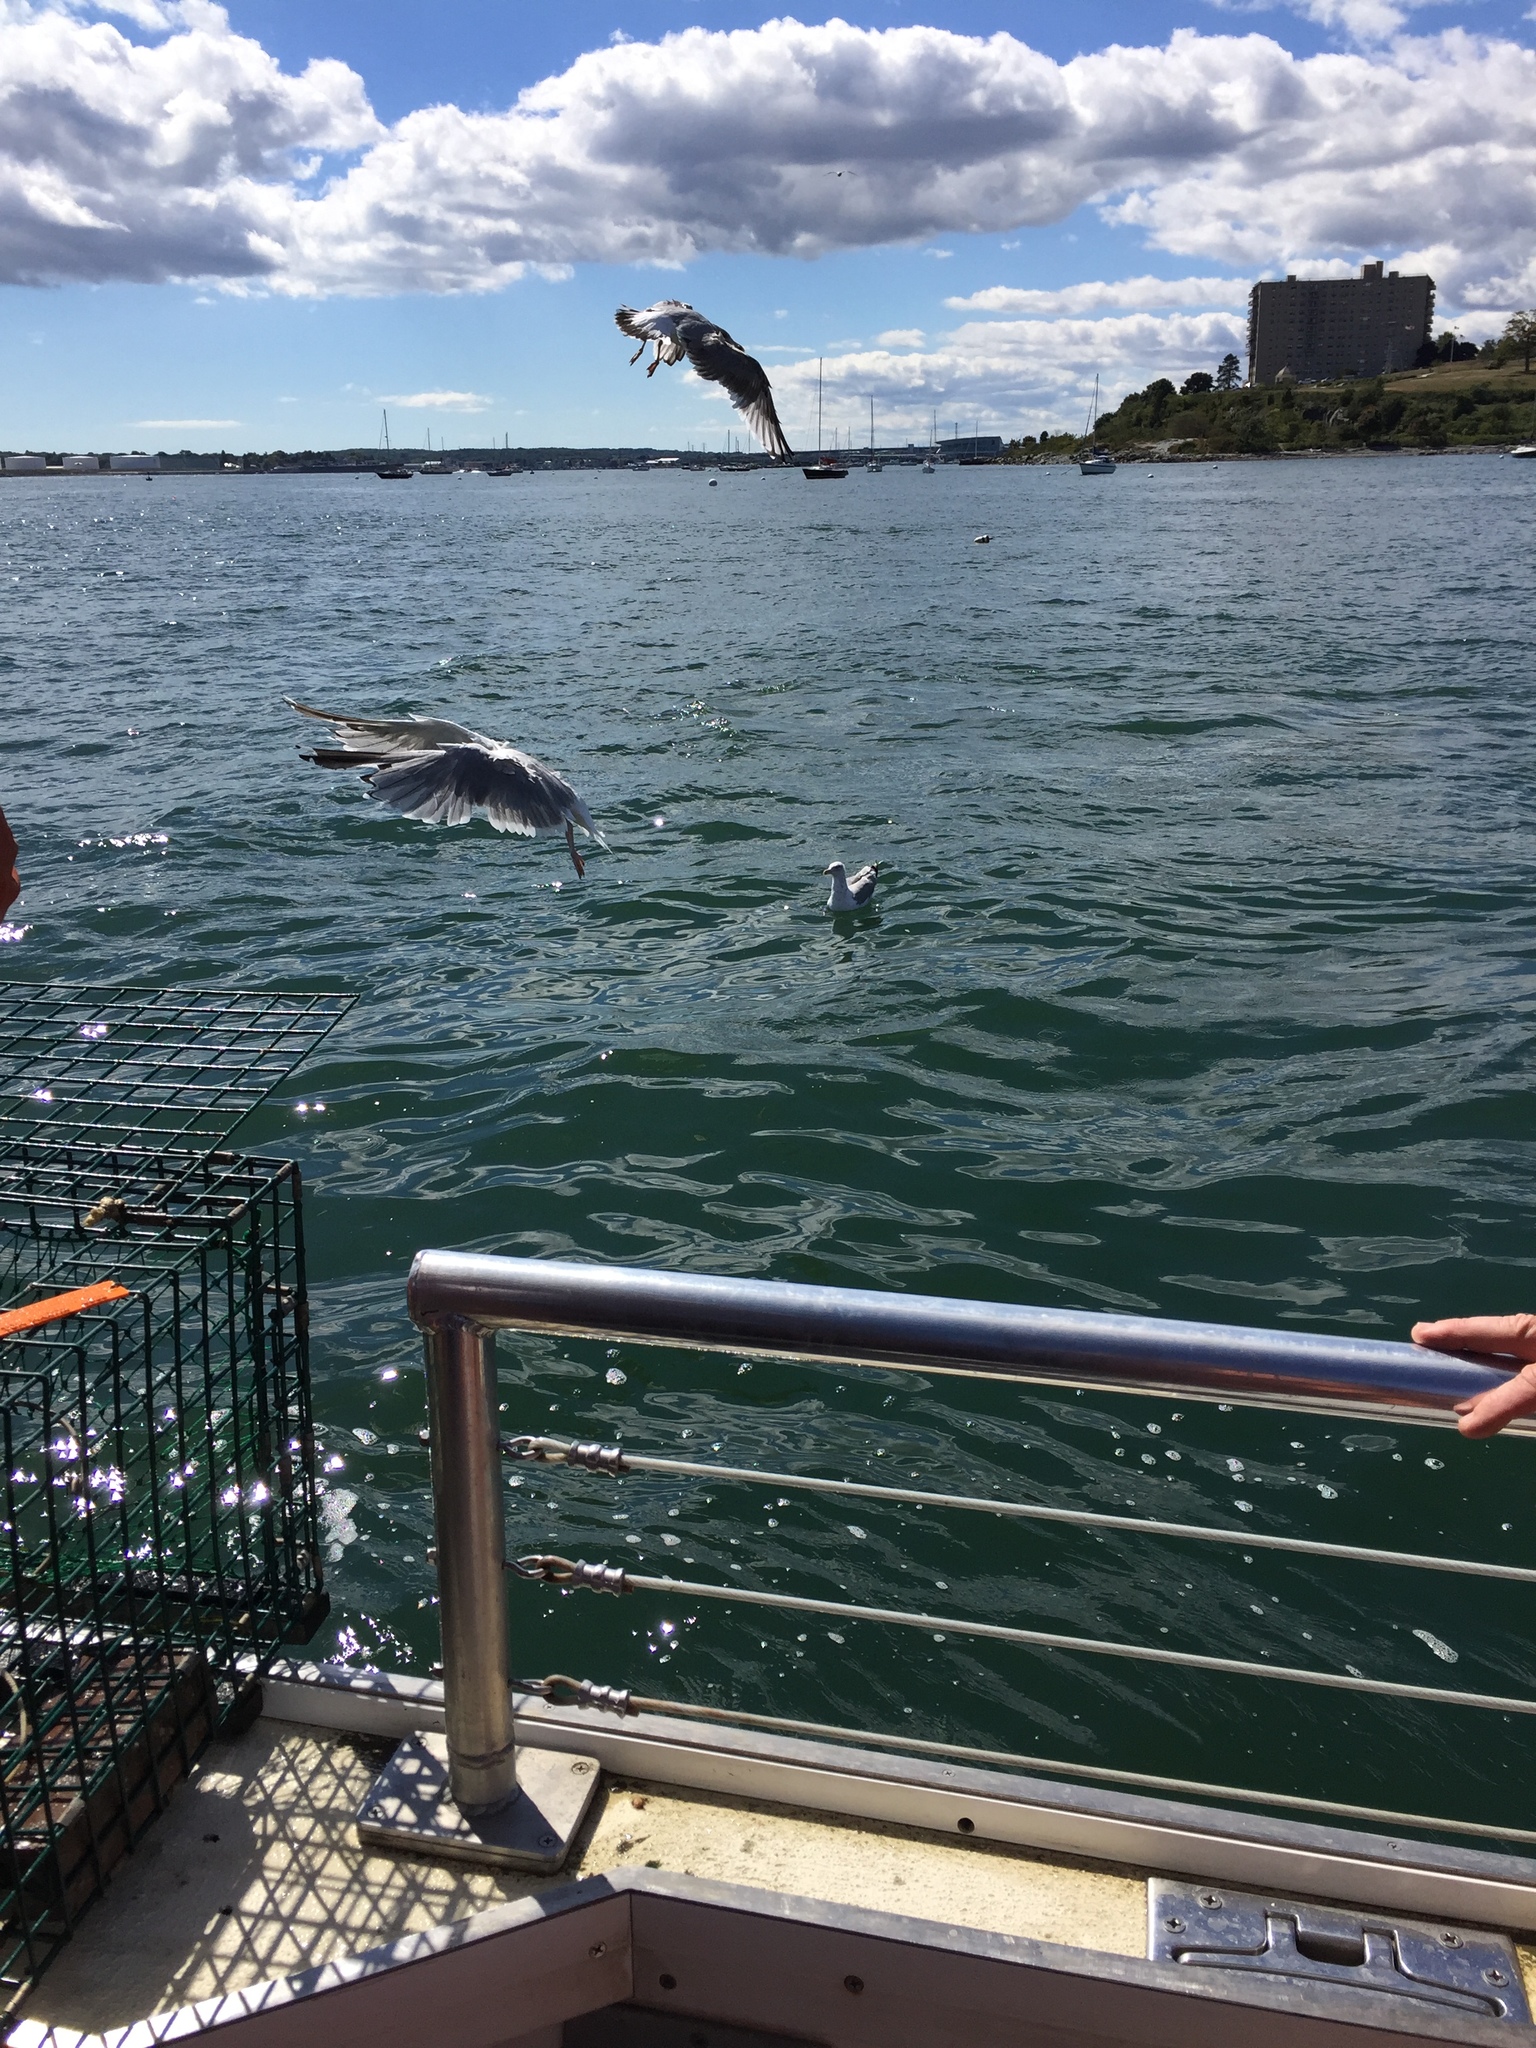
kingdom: Animalia
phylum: Chordata
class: Aves
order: Charadriiformes
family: Laridae
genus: Larus
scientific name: Larus argentatus
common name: Herring gull
